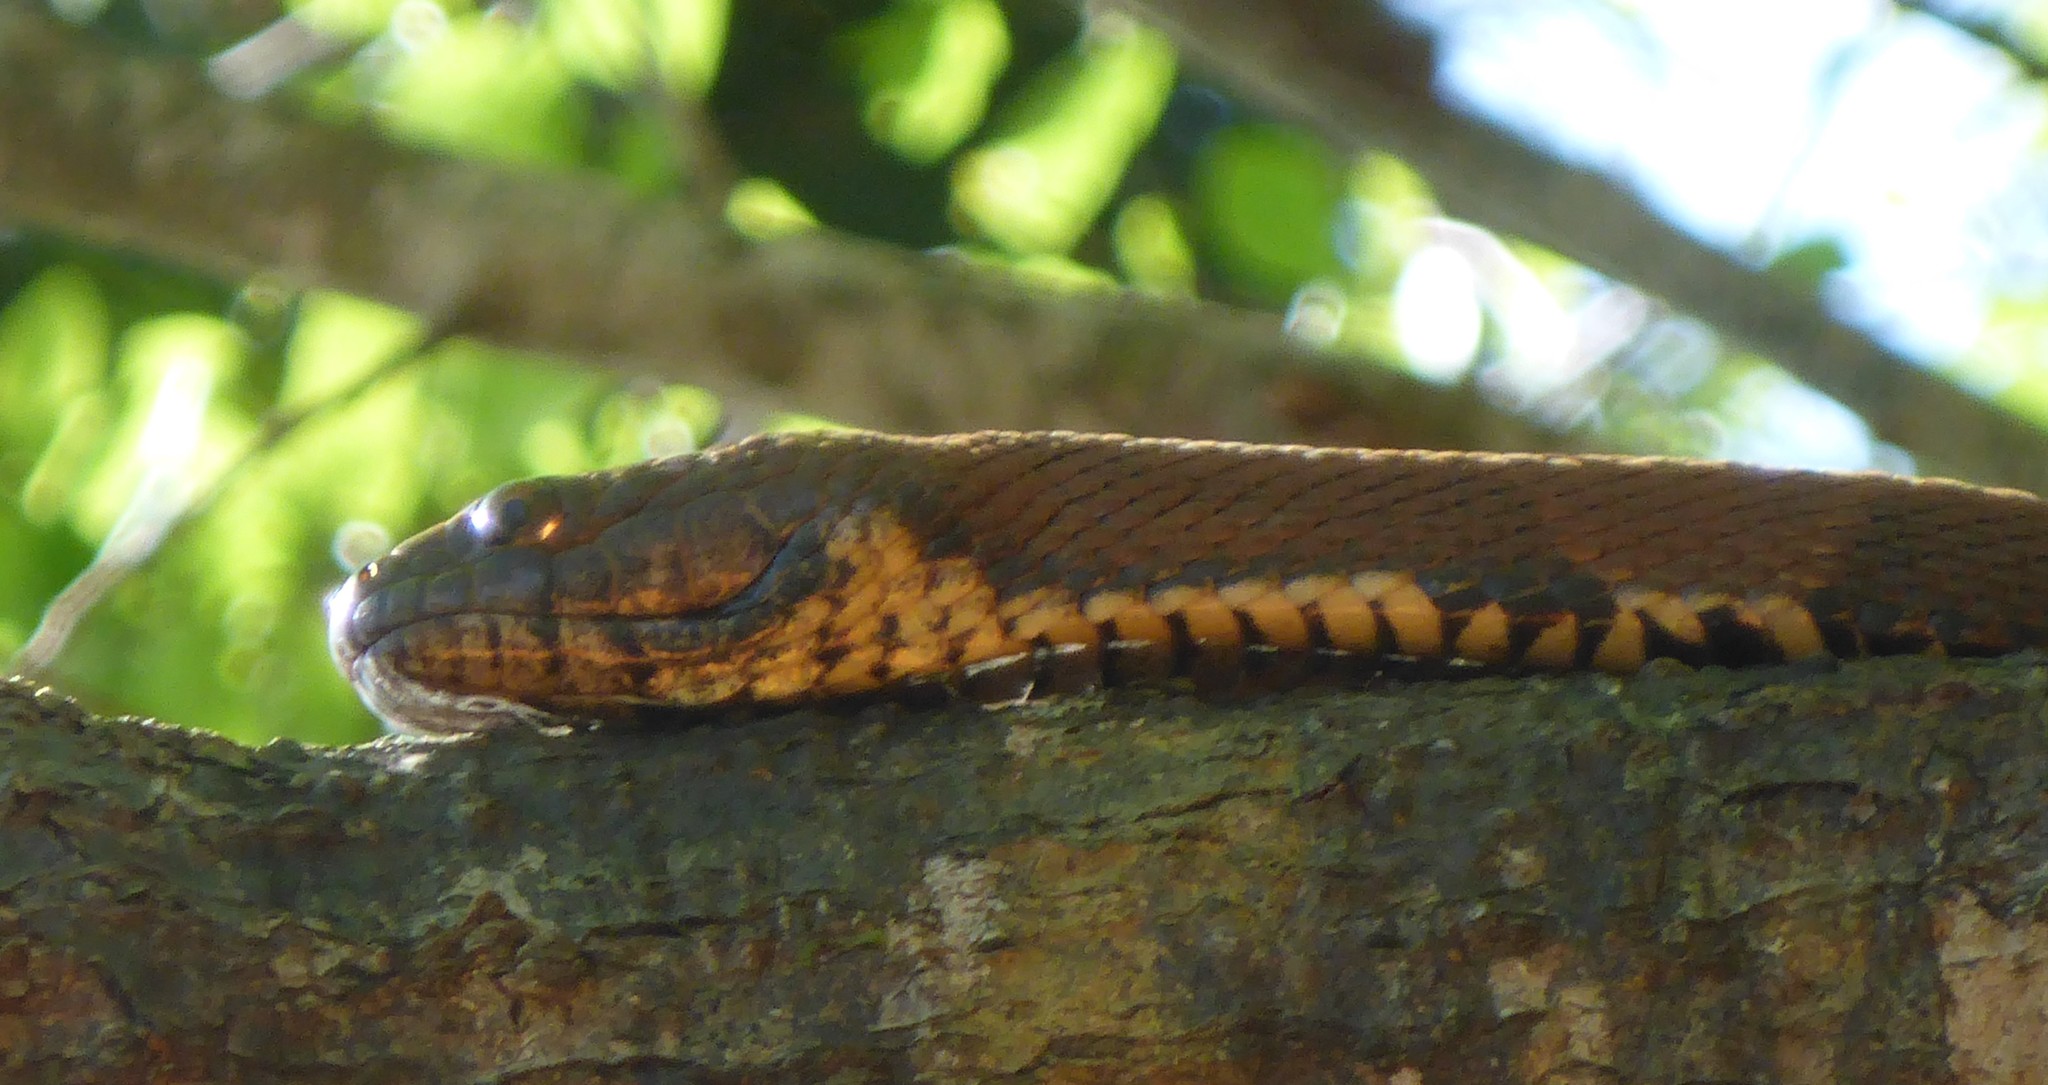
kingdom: Animalia
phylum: Chordata
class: Squamata
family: Colubridae
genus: Nerodia
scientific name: Nerodia taxispilota
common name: Brown water snake
